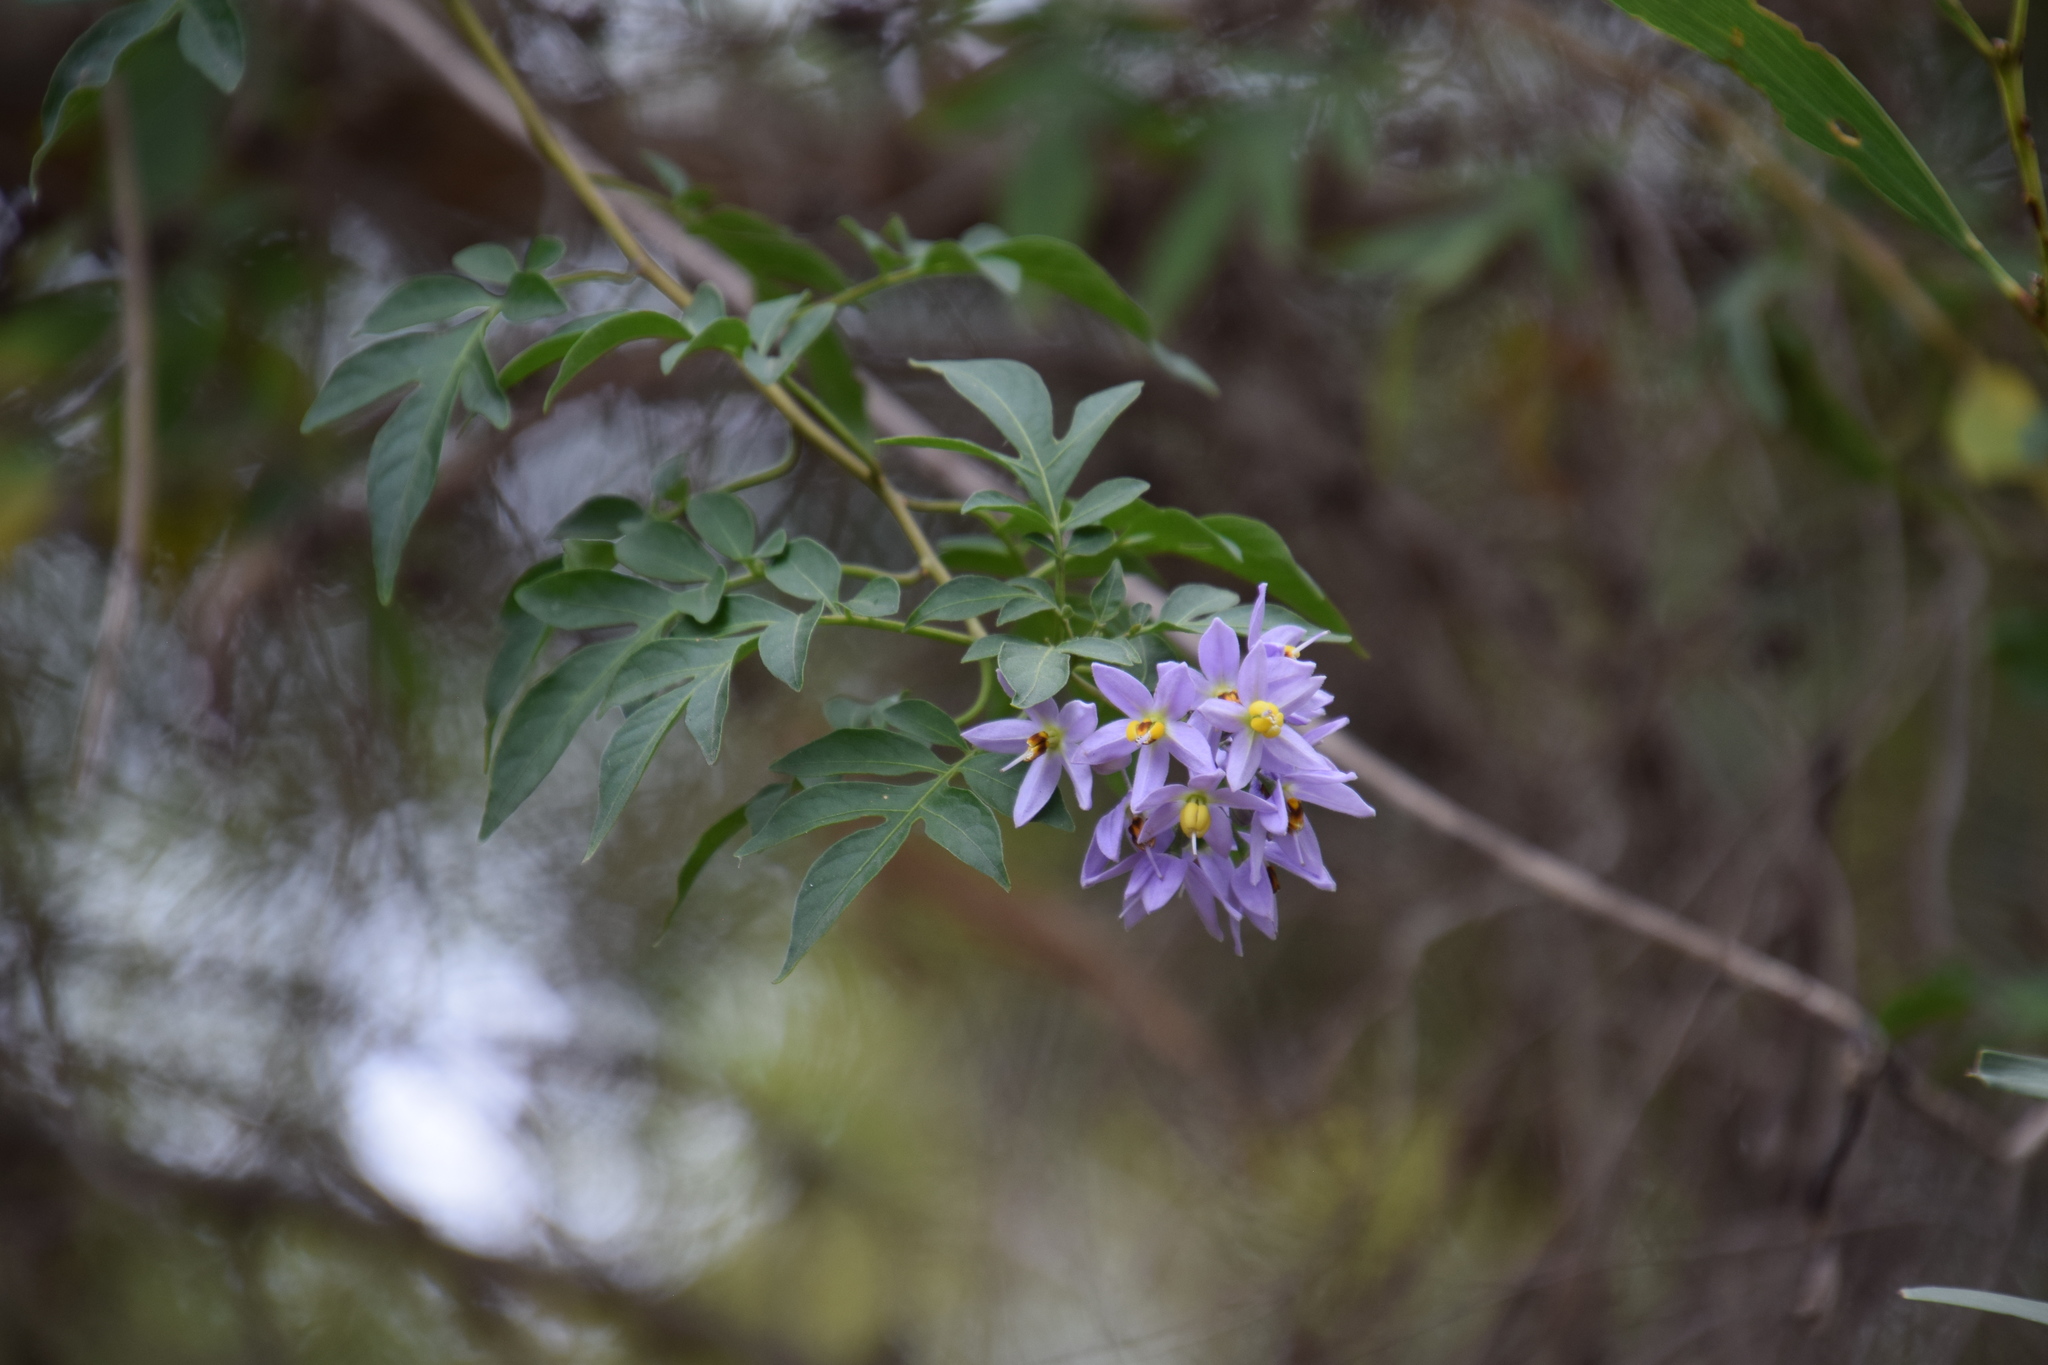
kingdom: Plantae
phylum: Tracheophyta
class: Magnoliopsida
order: Solanales
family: Solanaceae
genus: Solanum
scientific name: Solanum seaforthianum
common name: Brazilian nightshade
